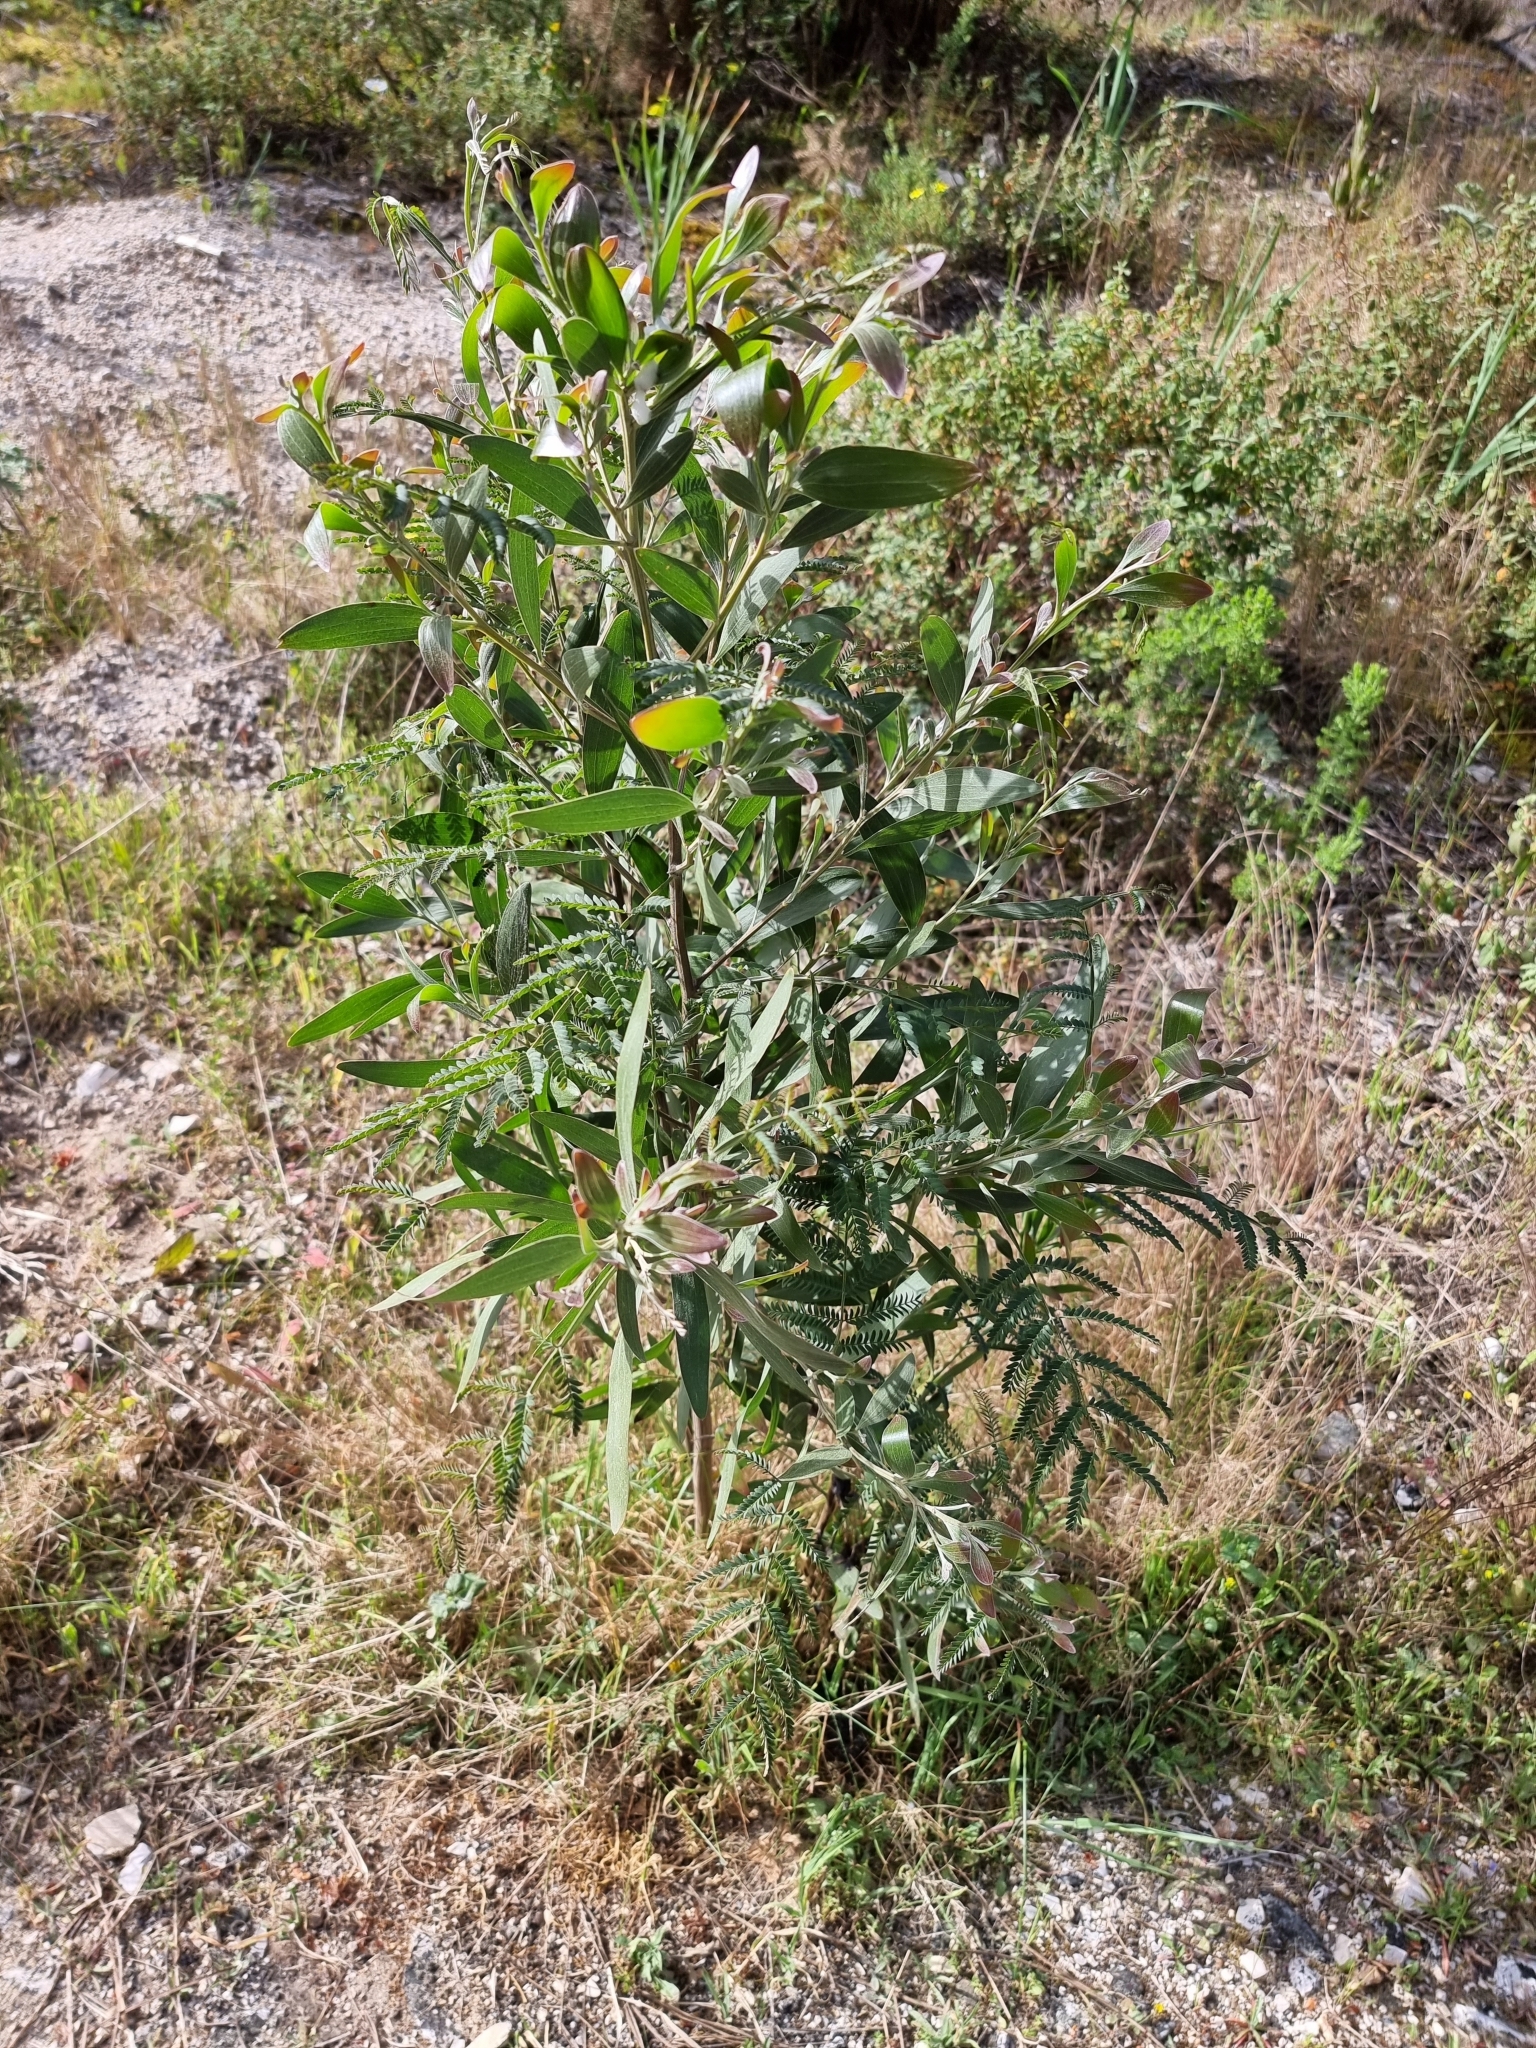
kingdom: Plantae
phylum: Tracheophyta
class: Magnoliopsida
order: Fabales
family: Fabaceae
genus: Acacia
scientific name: Acacia melanoxylon
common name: Blackwood
